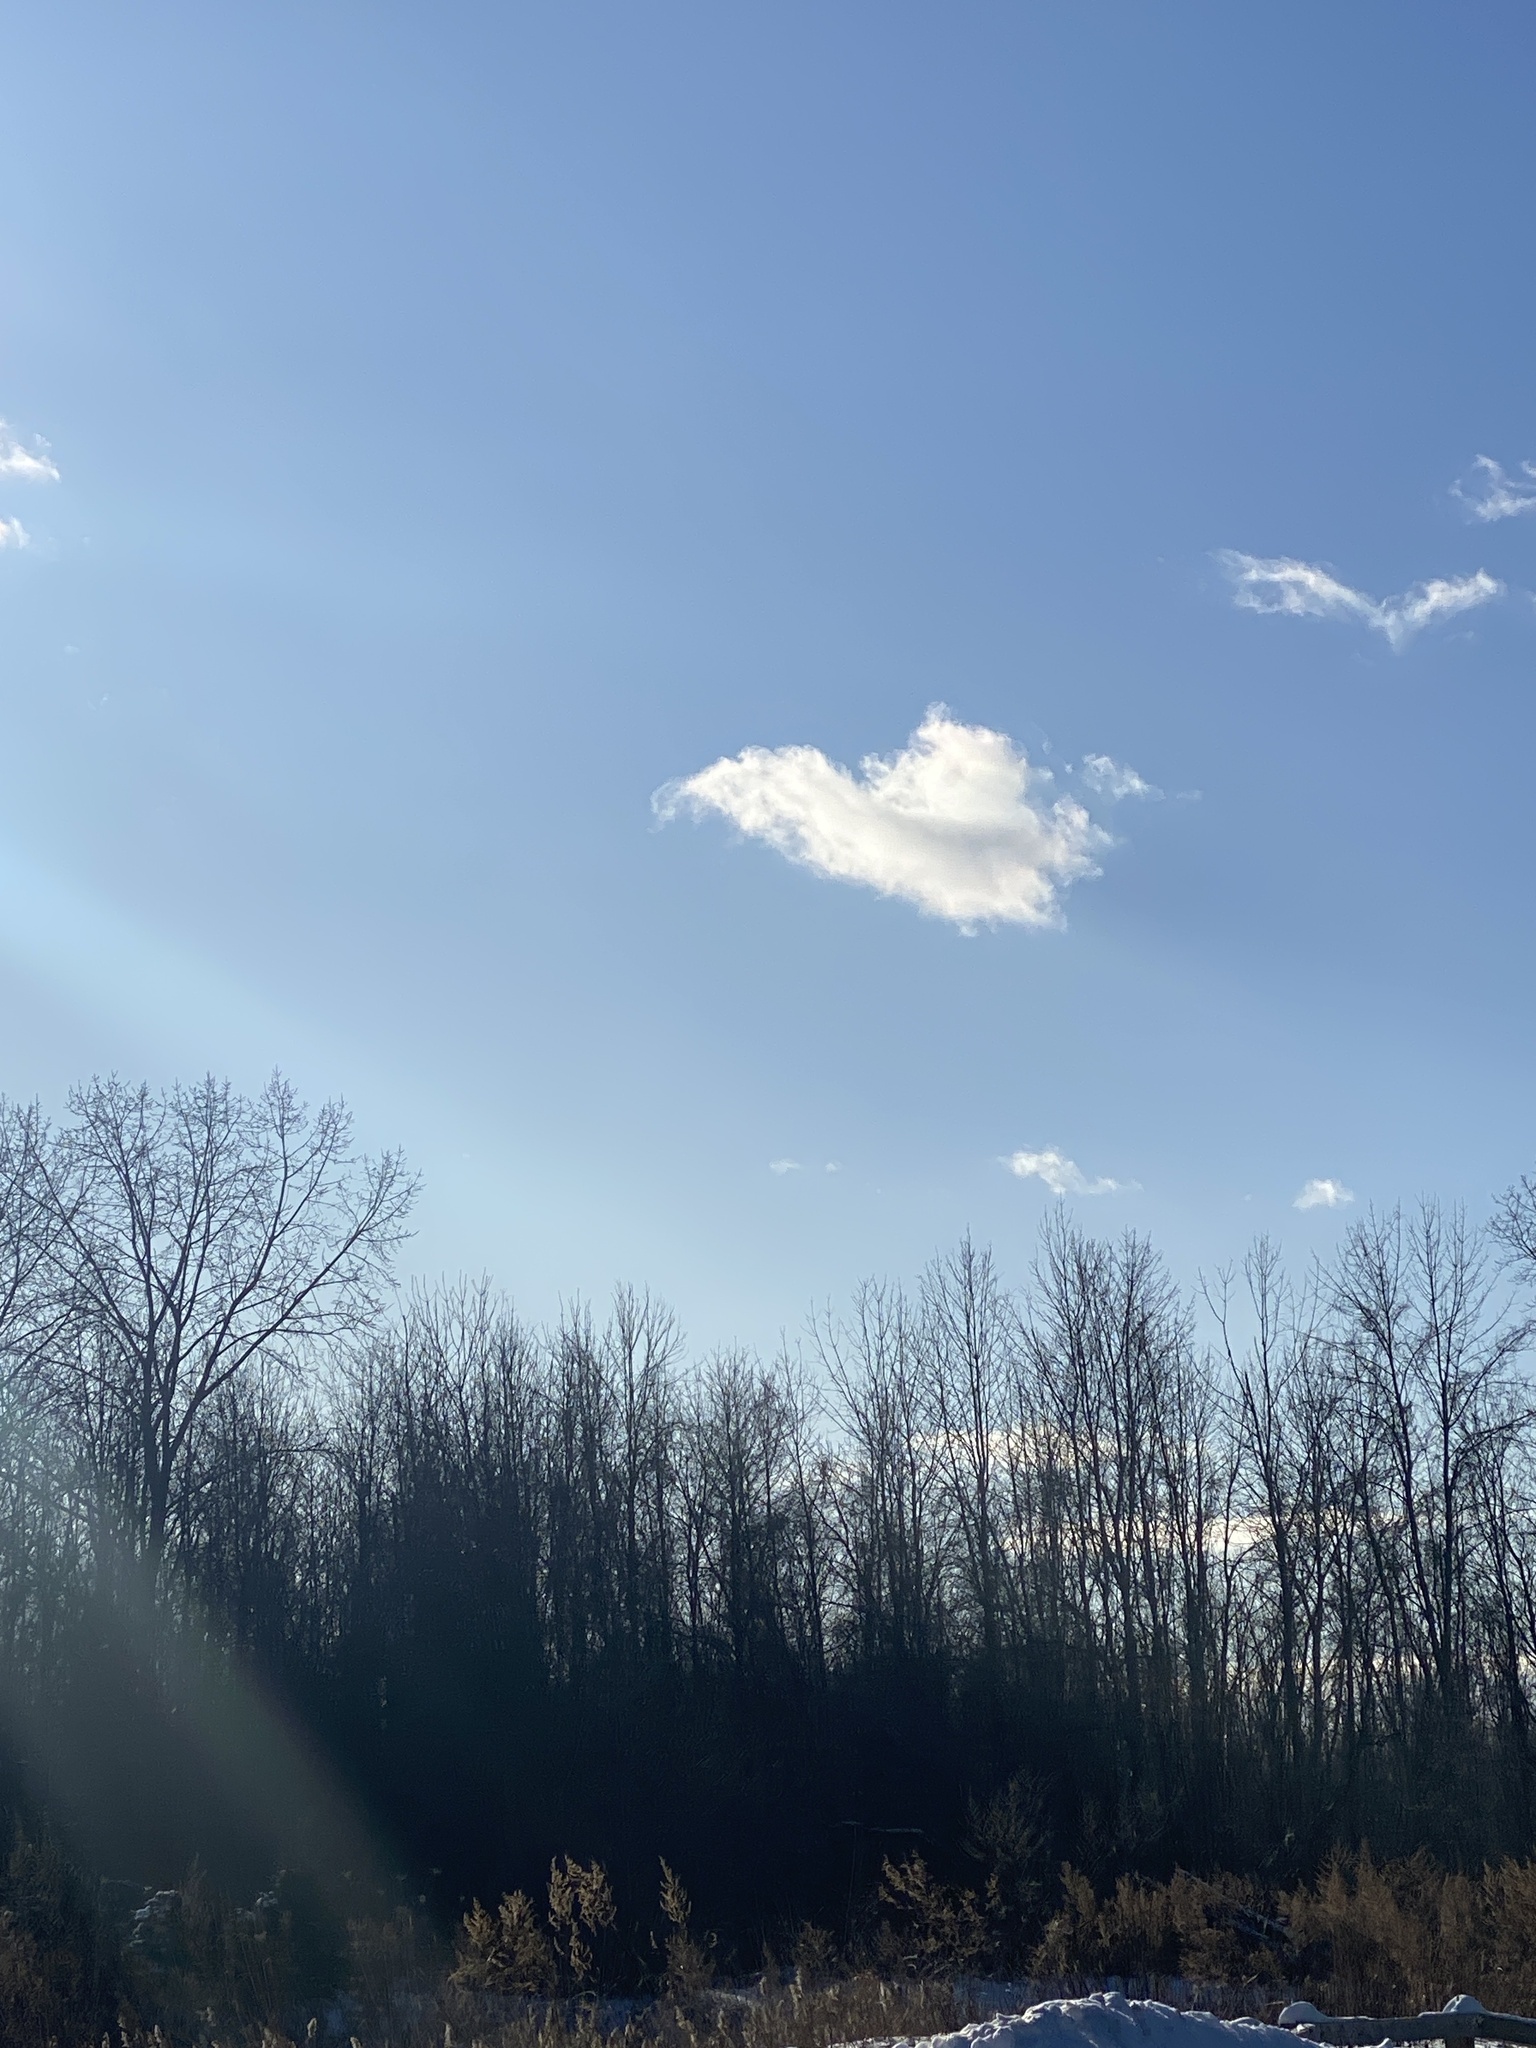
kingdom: Plantae
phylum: Tracheophyta
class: Magnoliopsida
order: Apiales
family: Apiaceae
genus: Daucus
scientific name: Daucus carota
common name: Wild carrot
